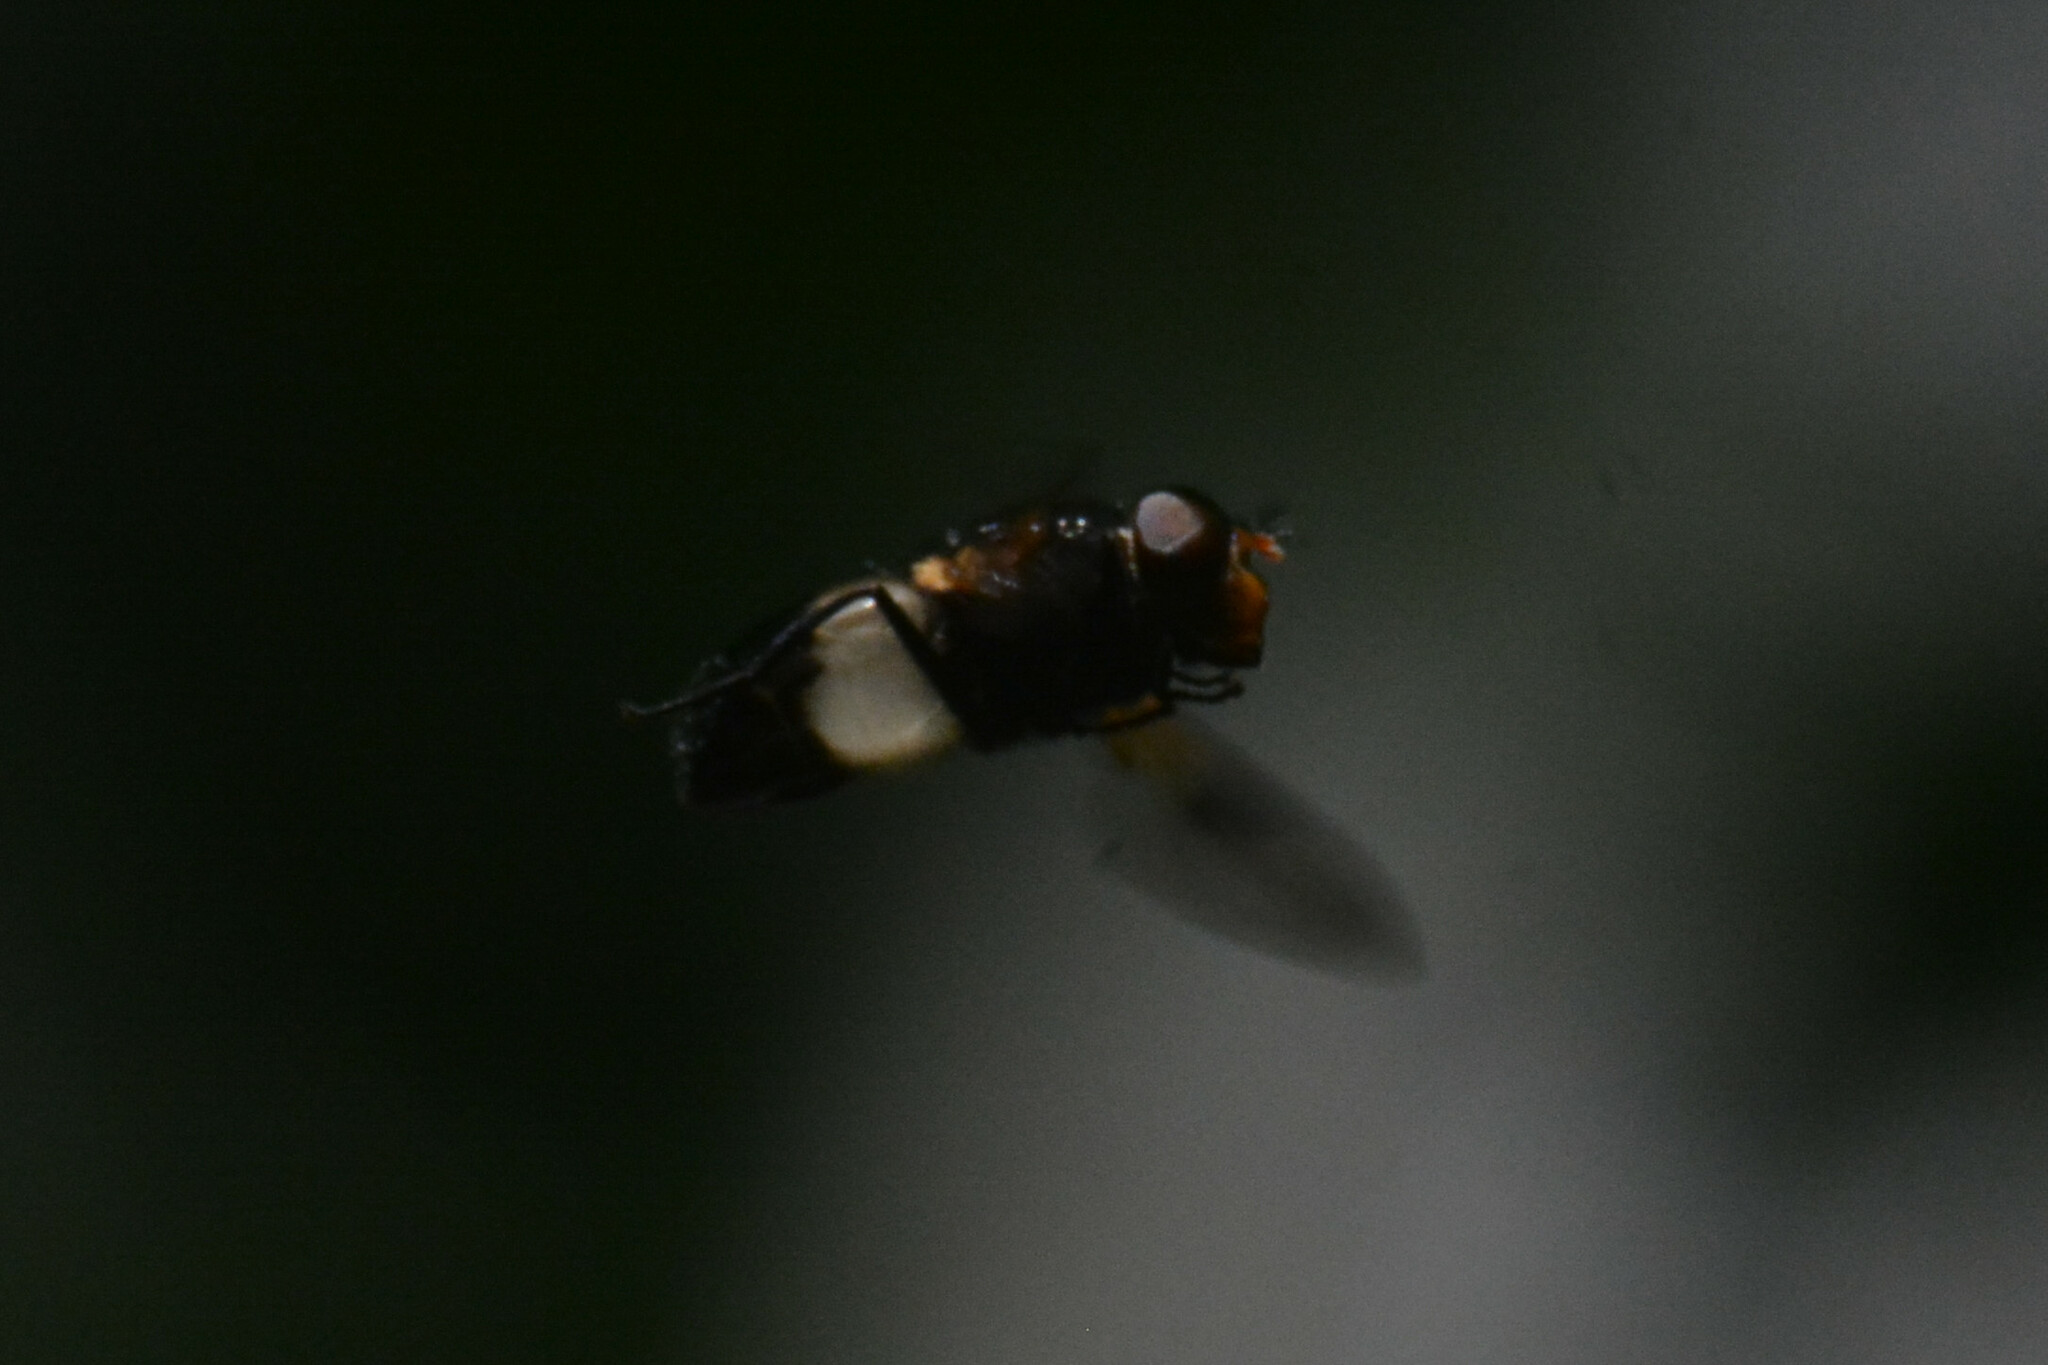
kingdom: Animalia
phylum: Arthropoda
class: Insecta
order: Diptera
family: Syrphidae
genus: Volucella
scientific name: Volucella pellucens
